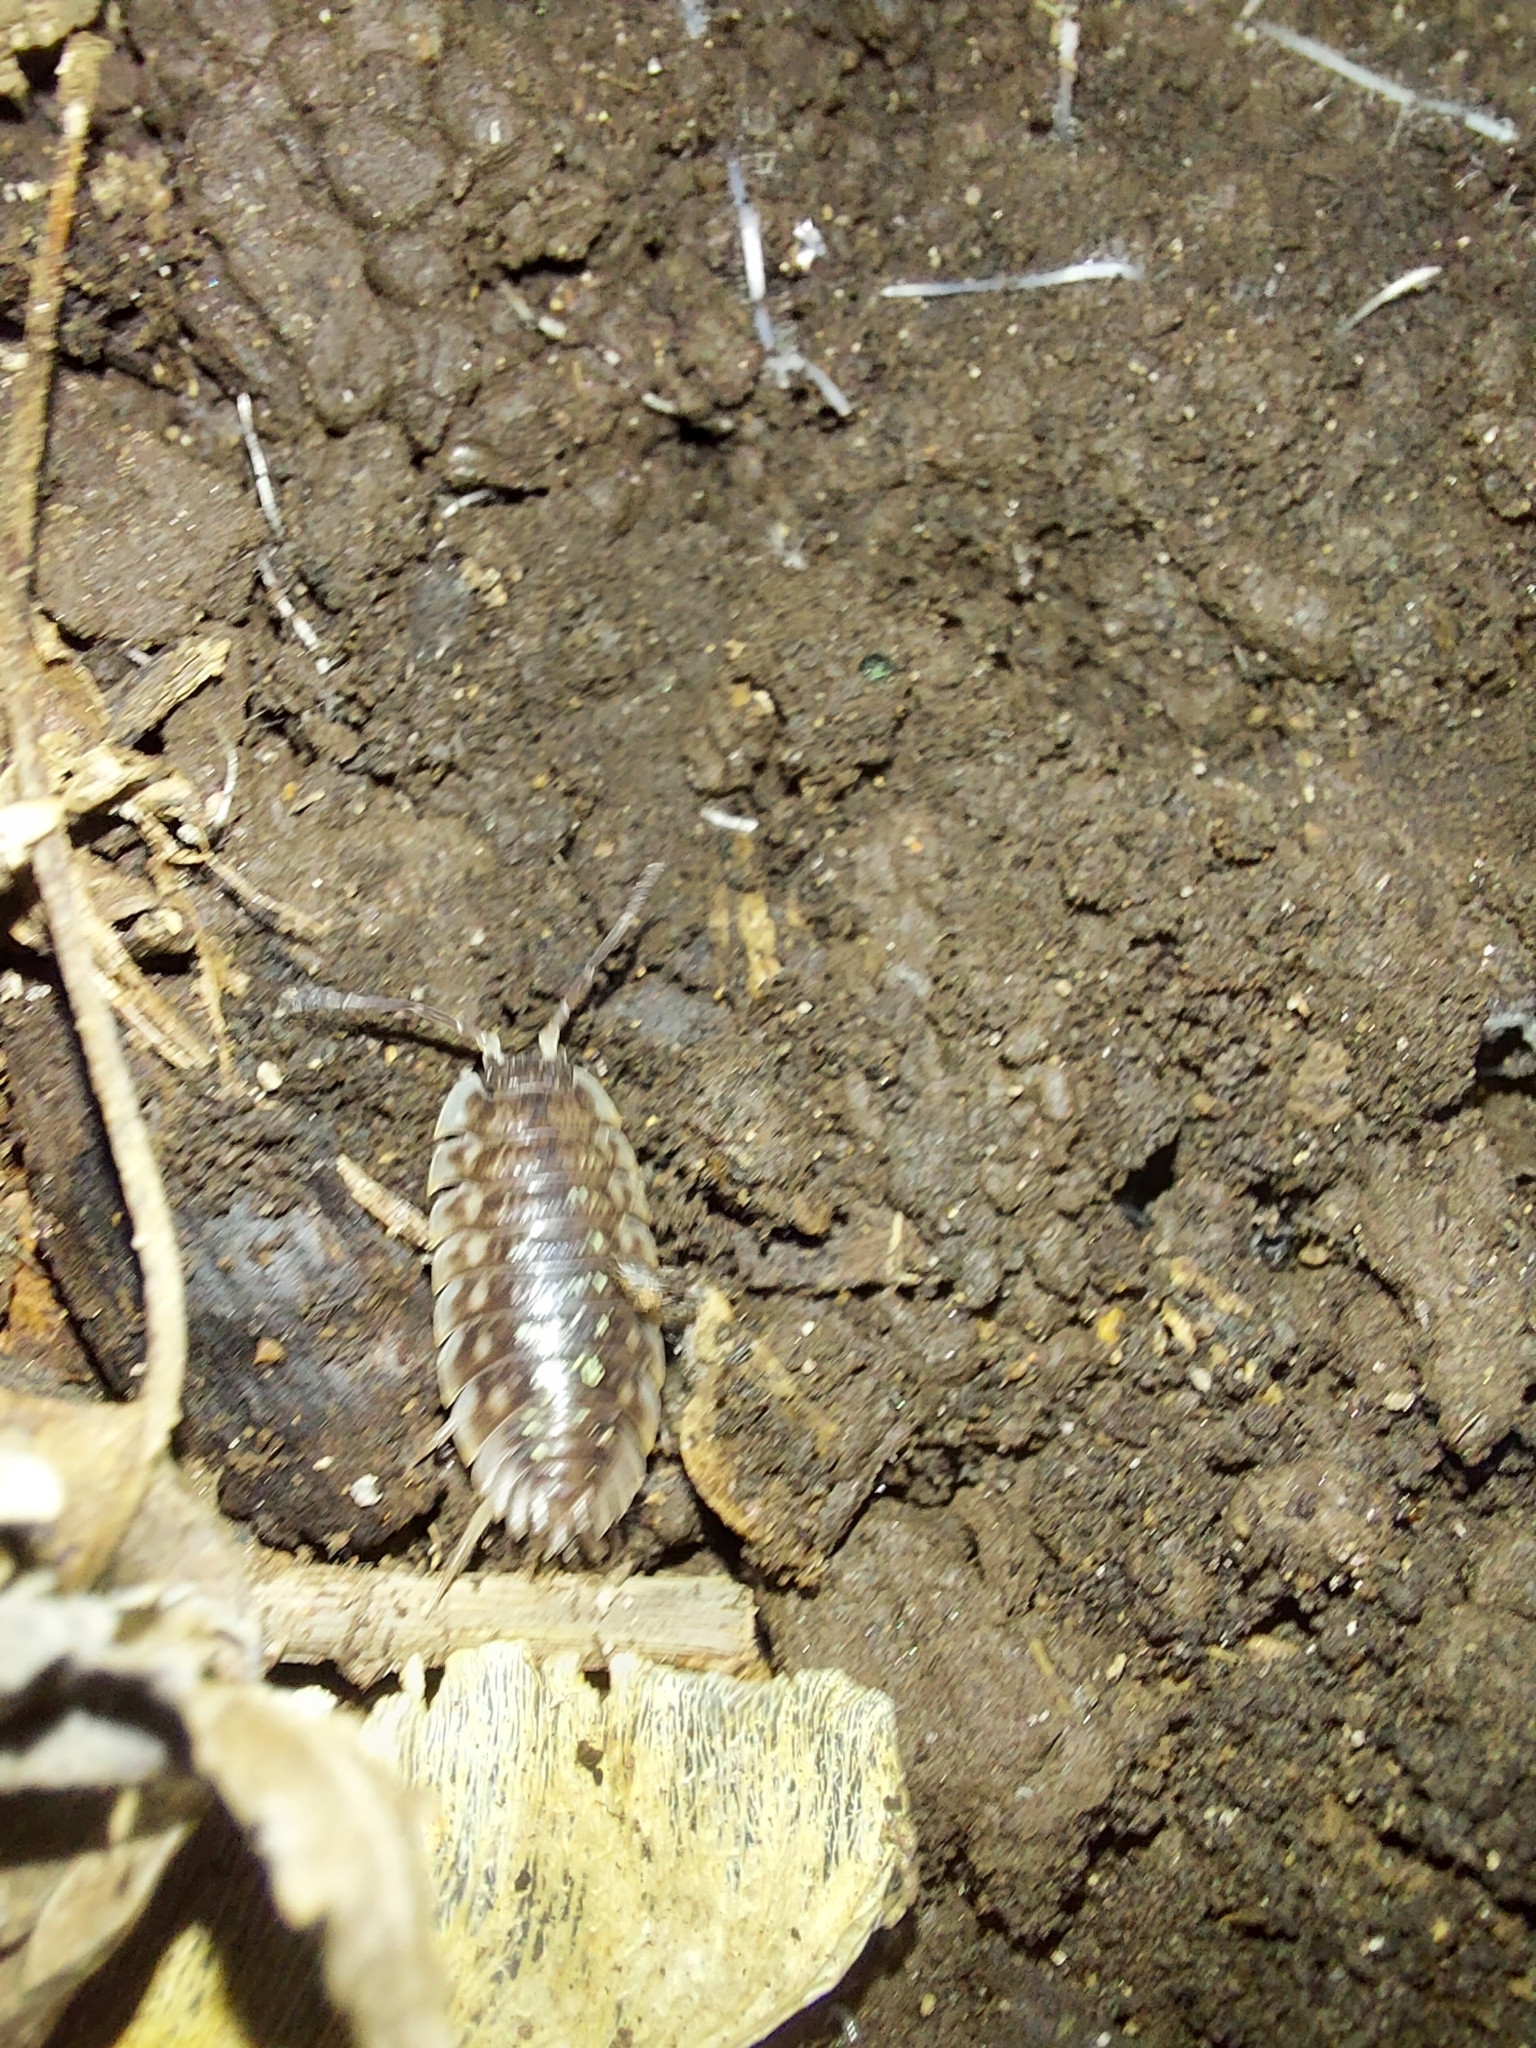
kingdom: Animalia
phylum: Arthropoda
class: Malacostraca
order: Isopoda
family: Oniscidae
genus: Oniscus
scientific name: Oniscus asellus
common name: Common shiny woodlouse
